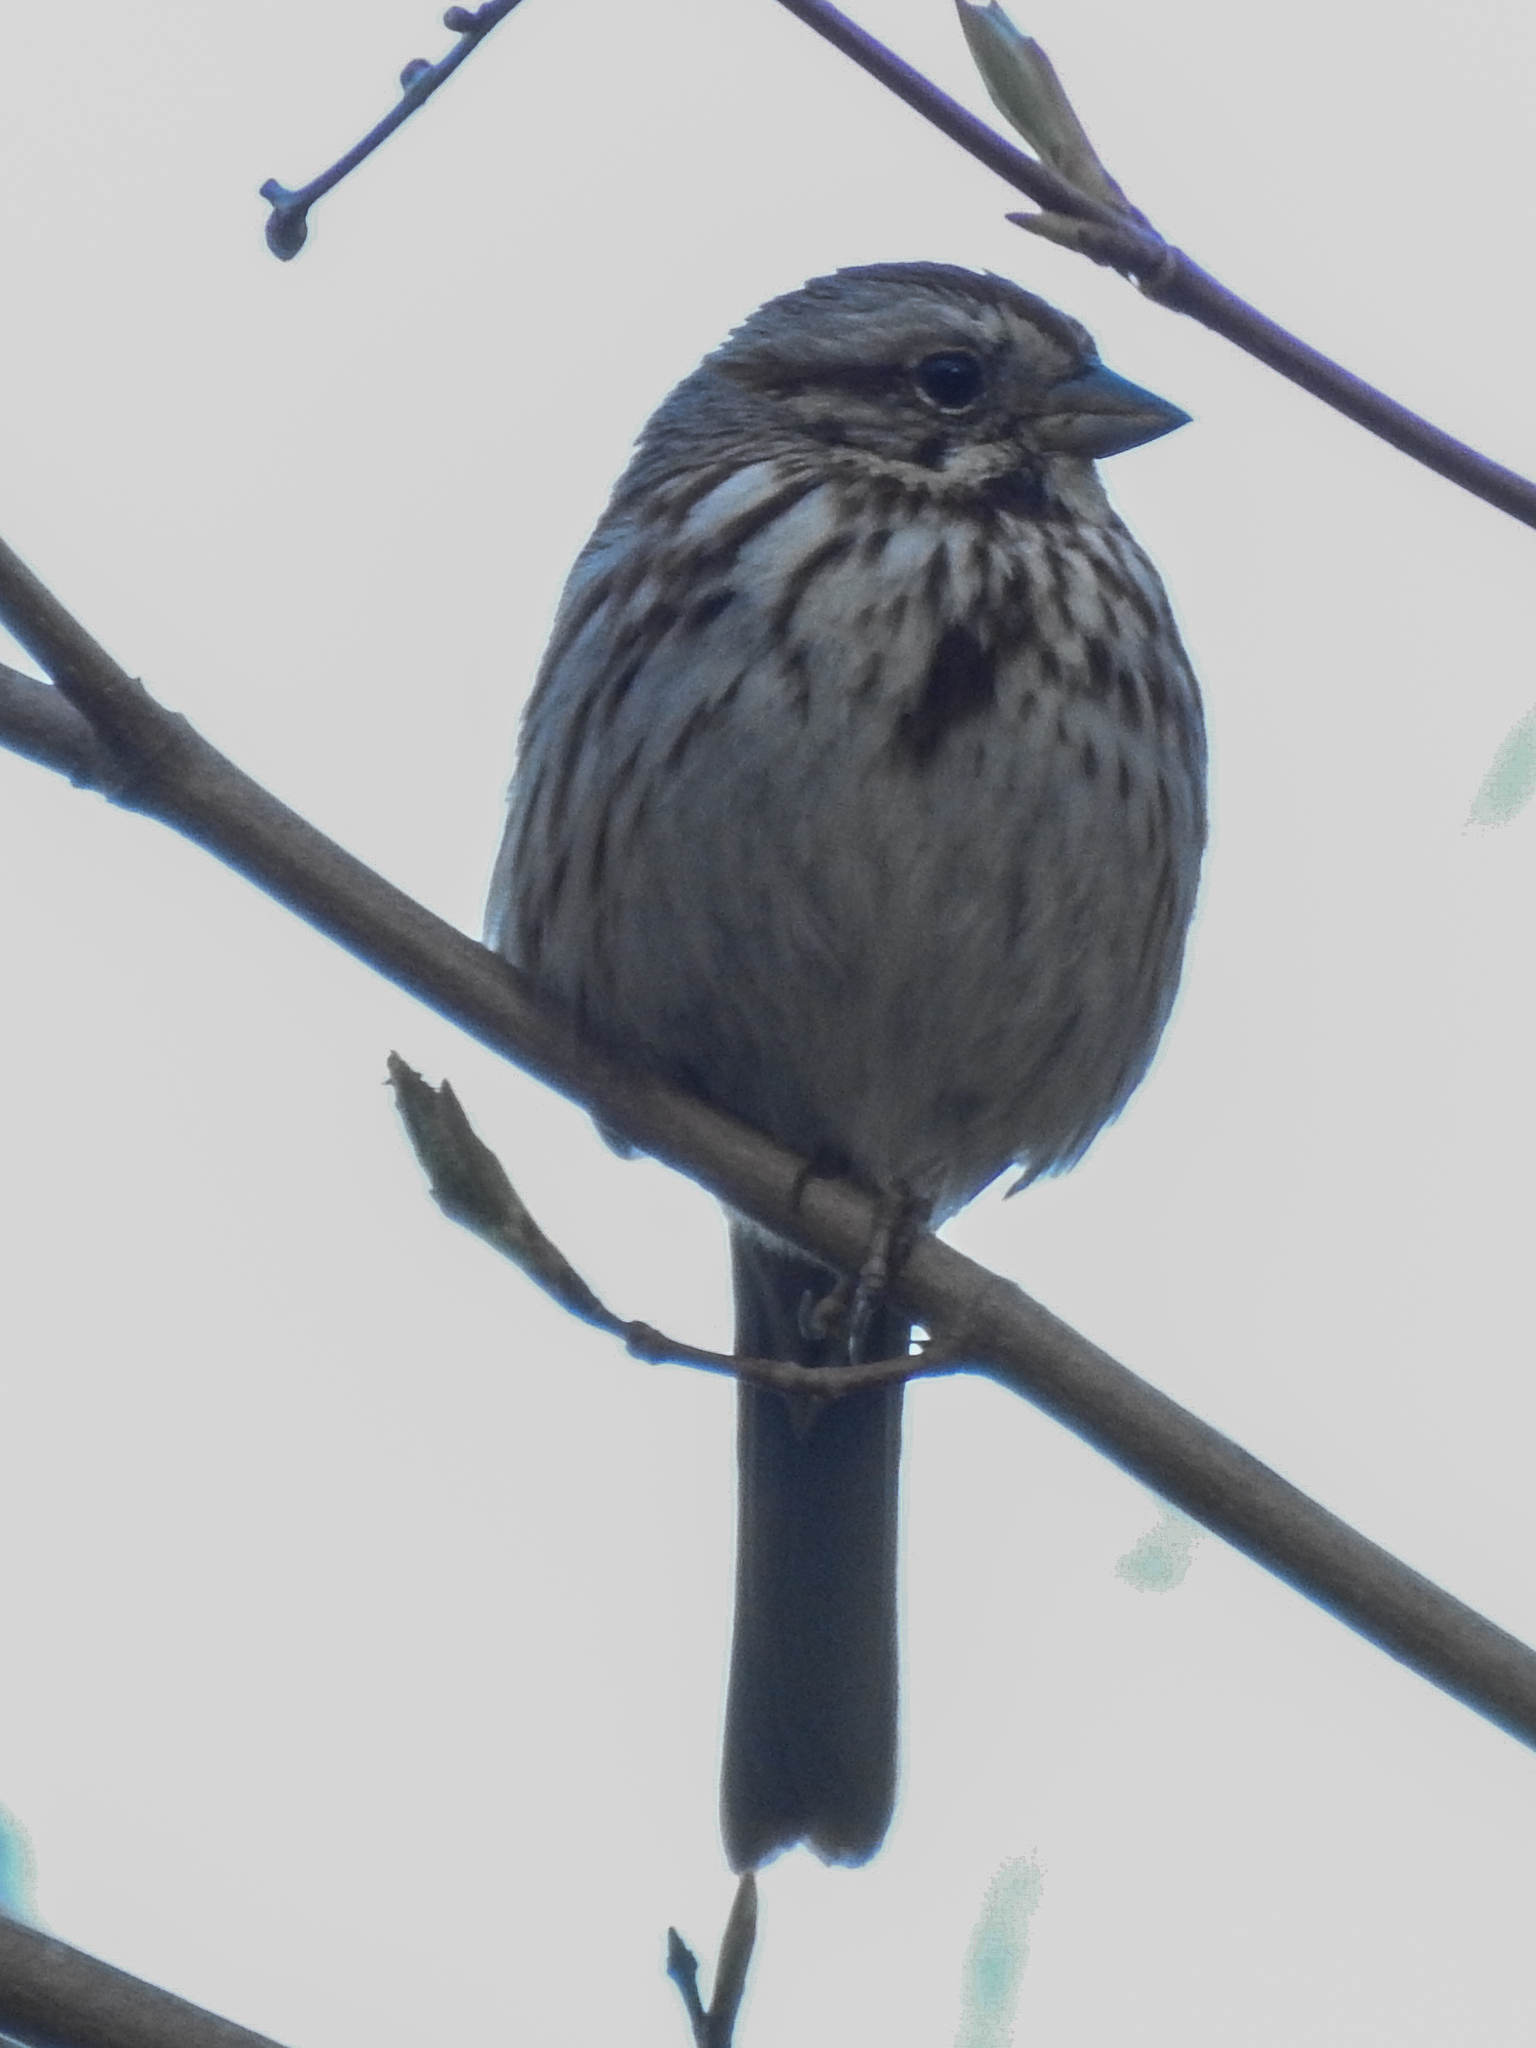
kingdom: Animalia
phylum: Chordata
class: Aves
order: Passeriformes
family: Passerellidae
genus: Melospiza
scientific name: Melospiza melodia
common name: Song sparrow
